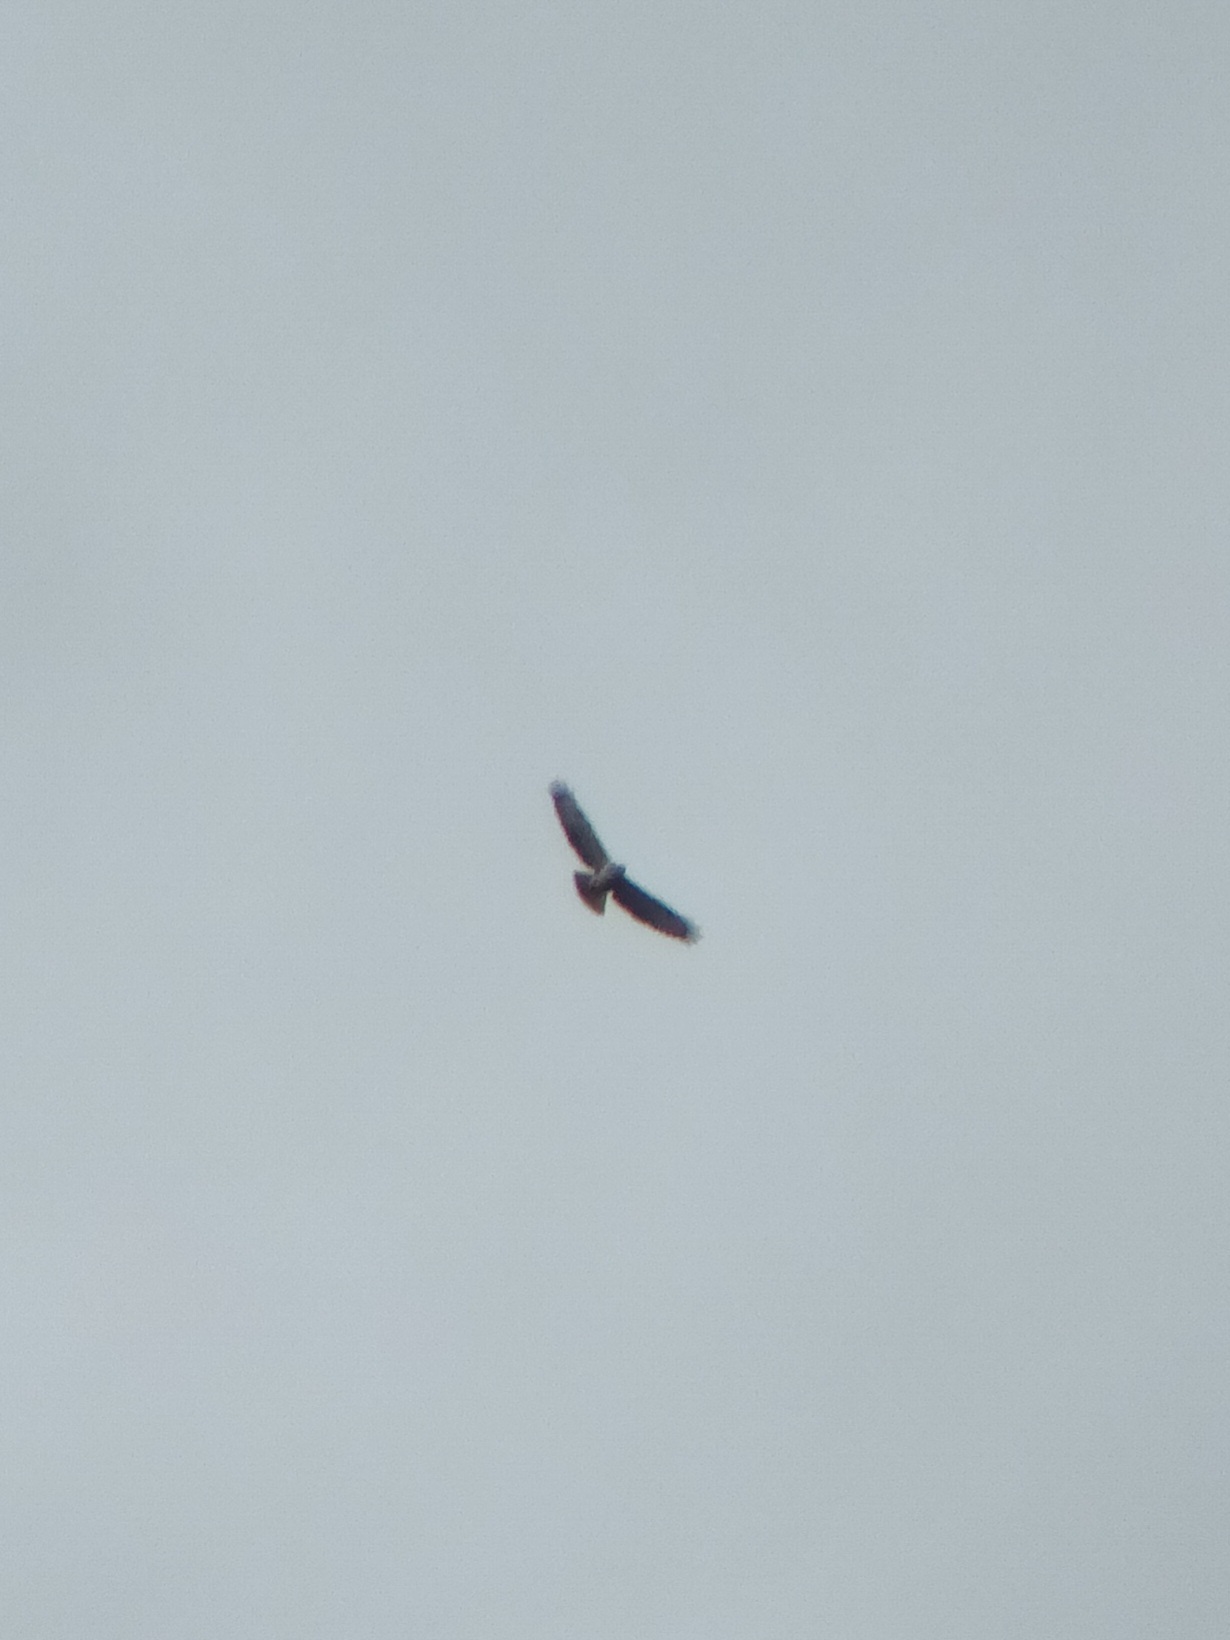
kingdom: Animalia
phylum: Chordata
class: Aves
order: Accipitriformes
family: Accipitridae
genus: Buteo
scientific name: Buteo buteo
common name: Common buzzard
